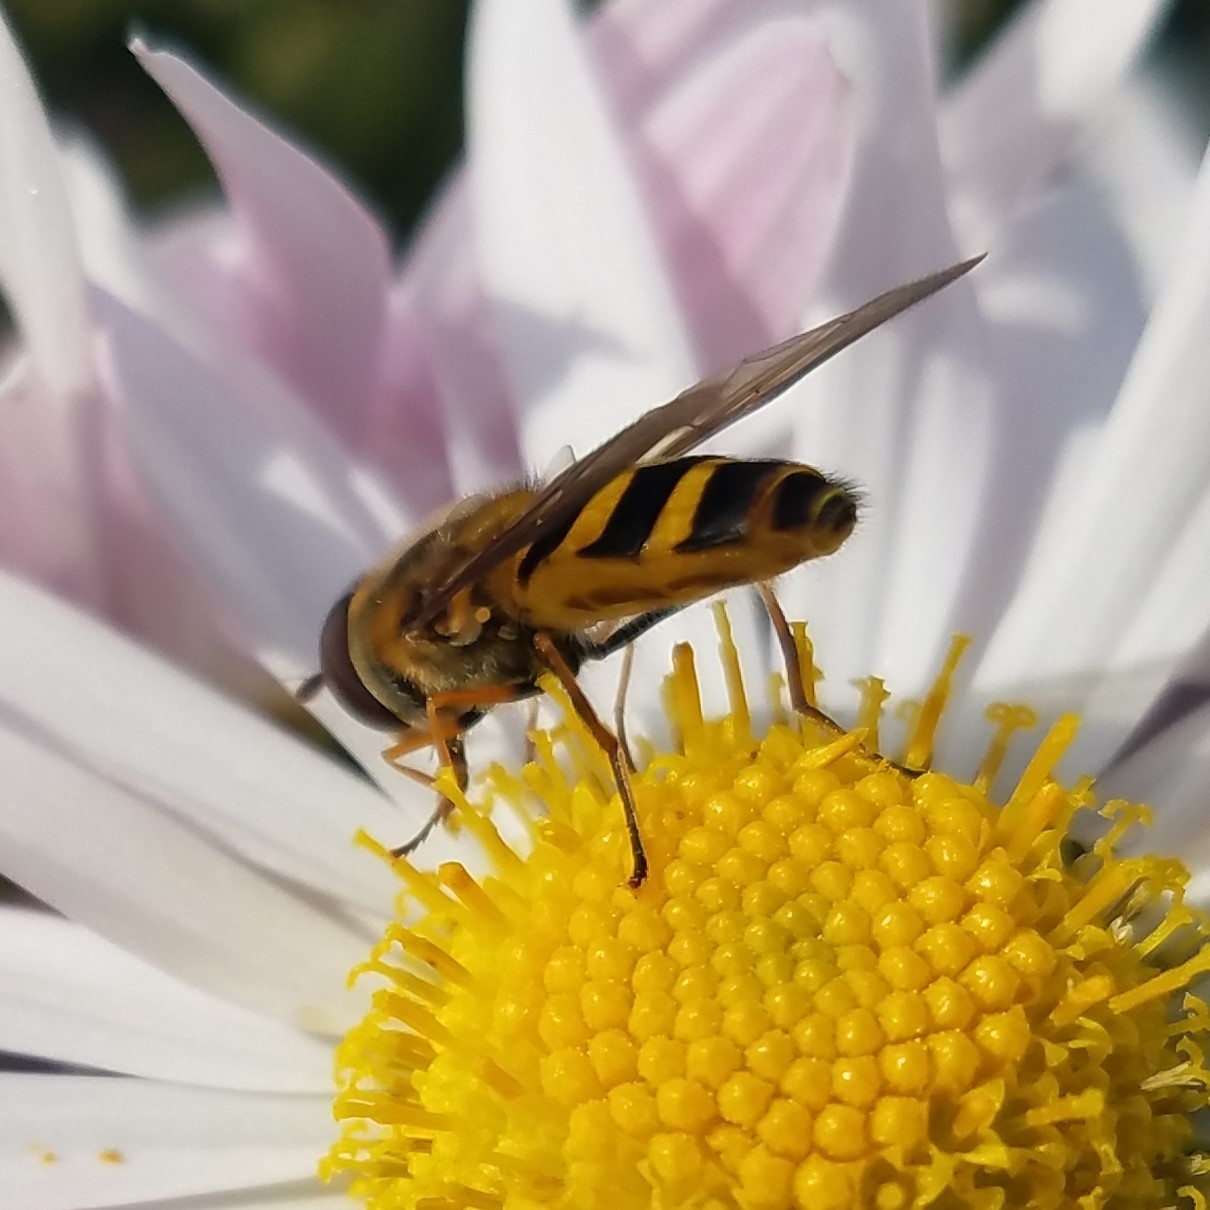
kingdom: Animalia
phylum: Arthropoda
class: Insecta
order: Diptera
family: Syrphidae
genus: Syrphus
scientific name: Syrphus
